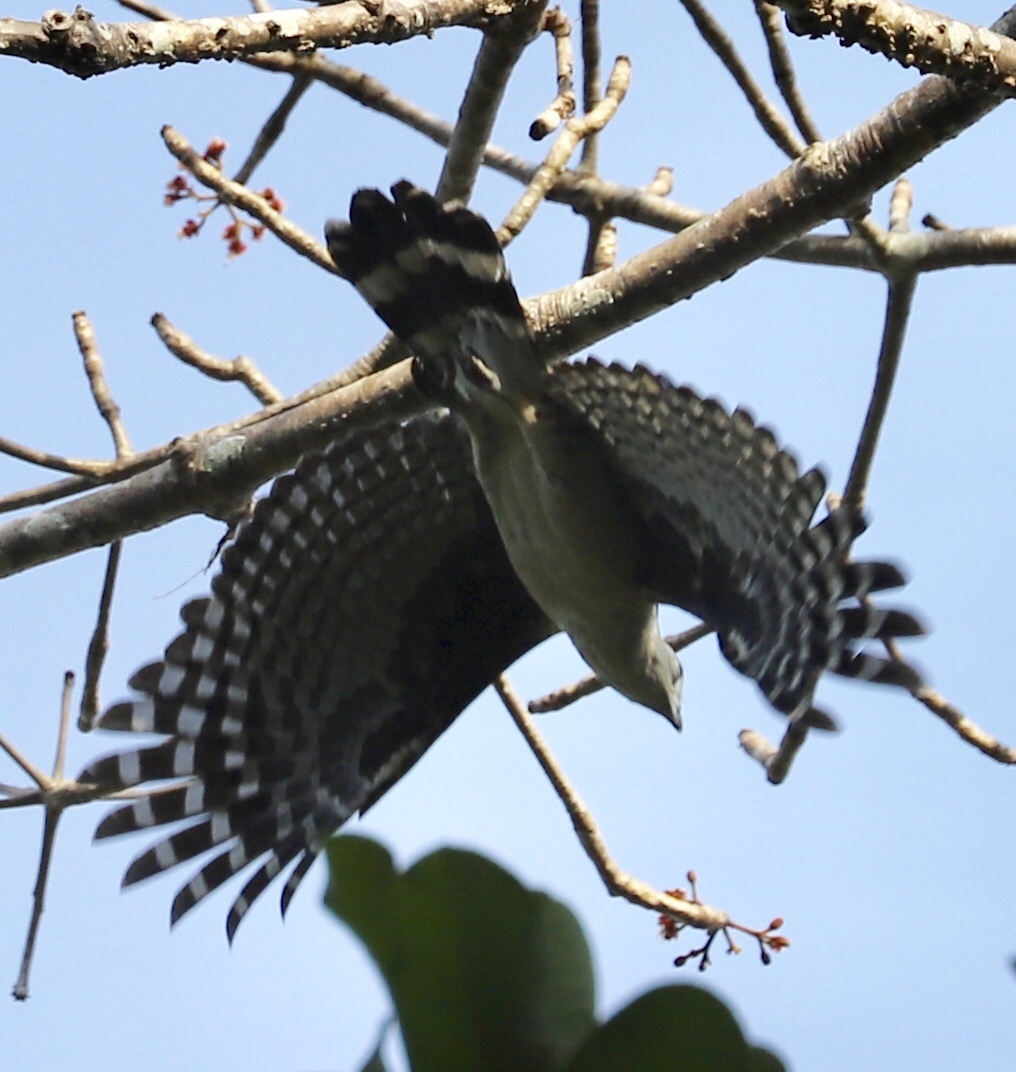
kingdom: Animalia
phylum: Chordata
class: Aves
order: Accipitriformes
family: Accipitridae
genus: Leptodon
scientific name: Leptodon cayanensis
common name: Gray-headed kite
